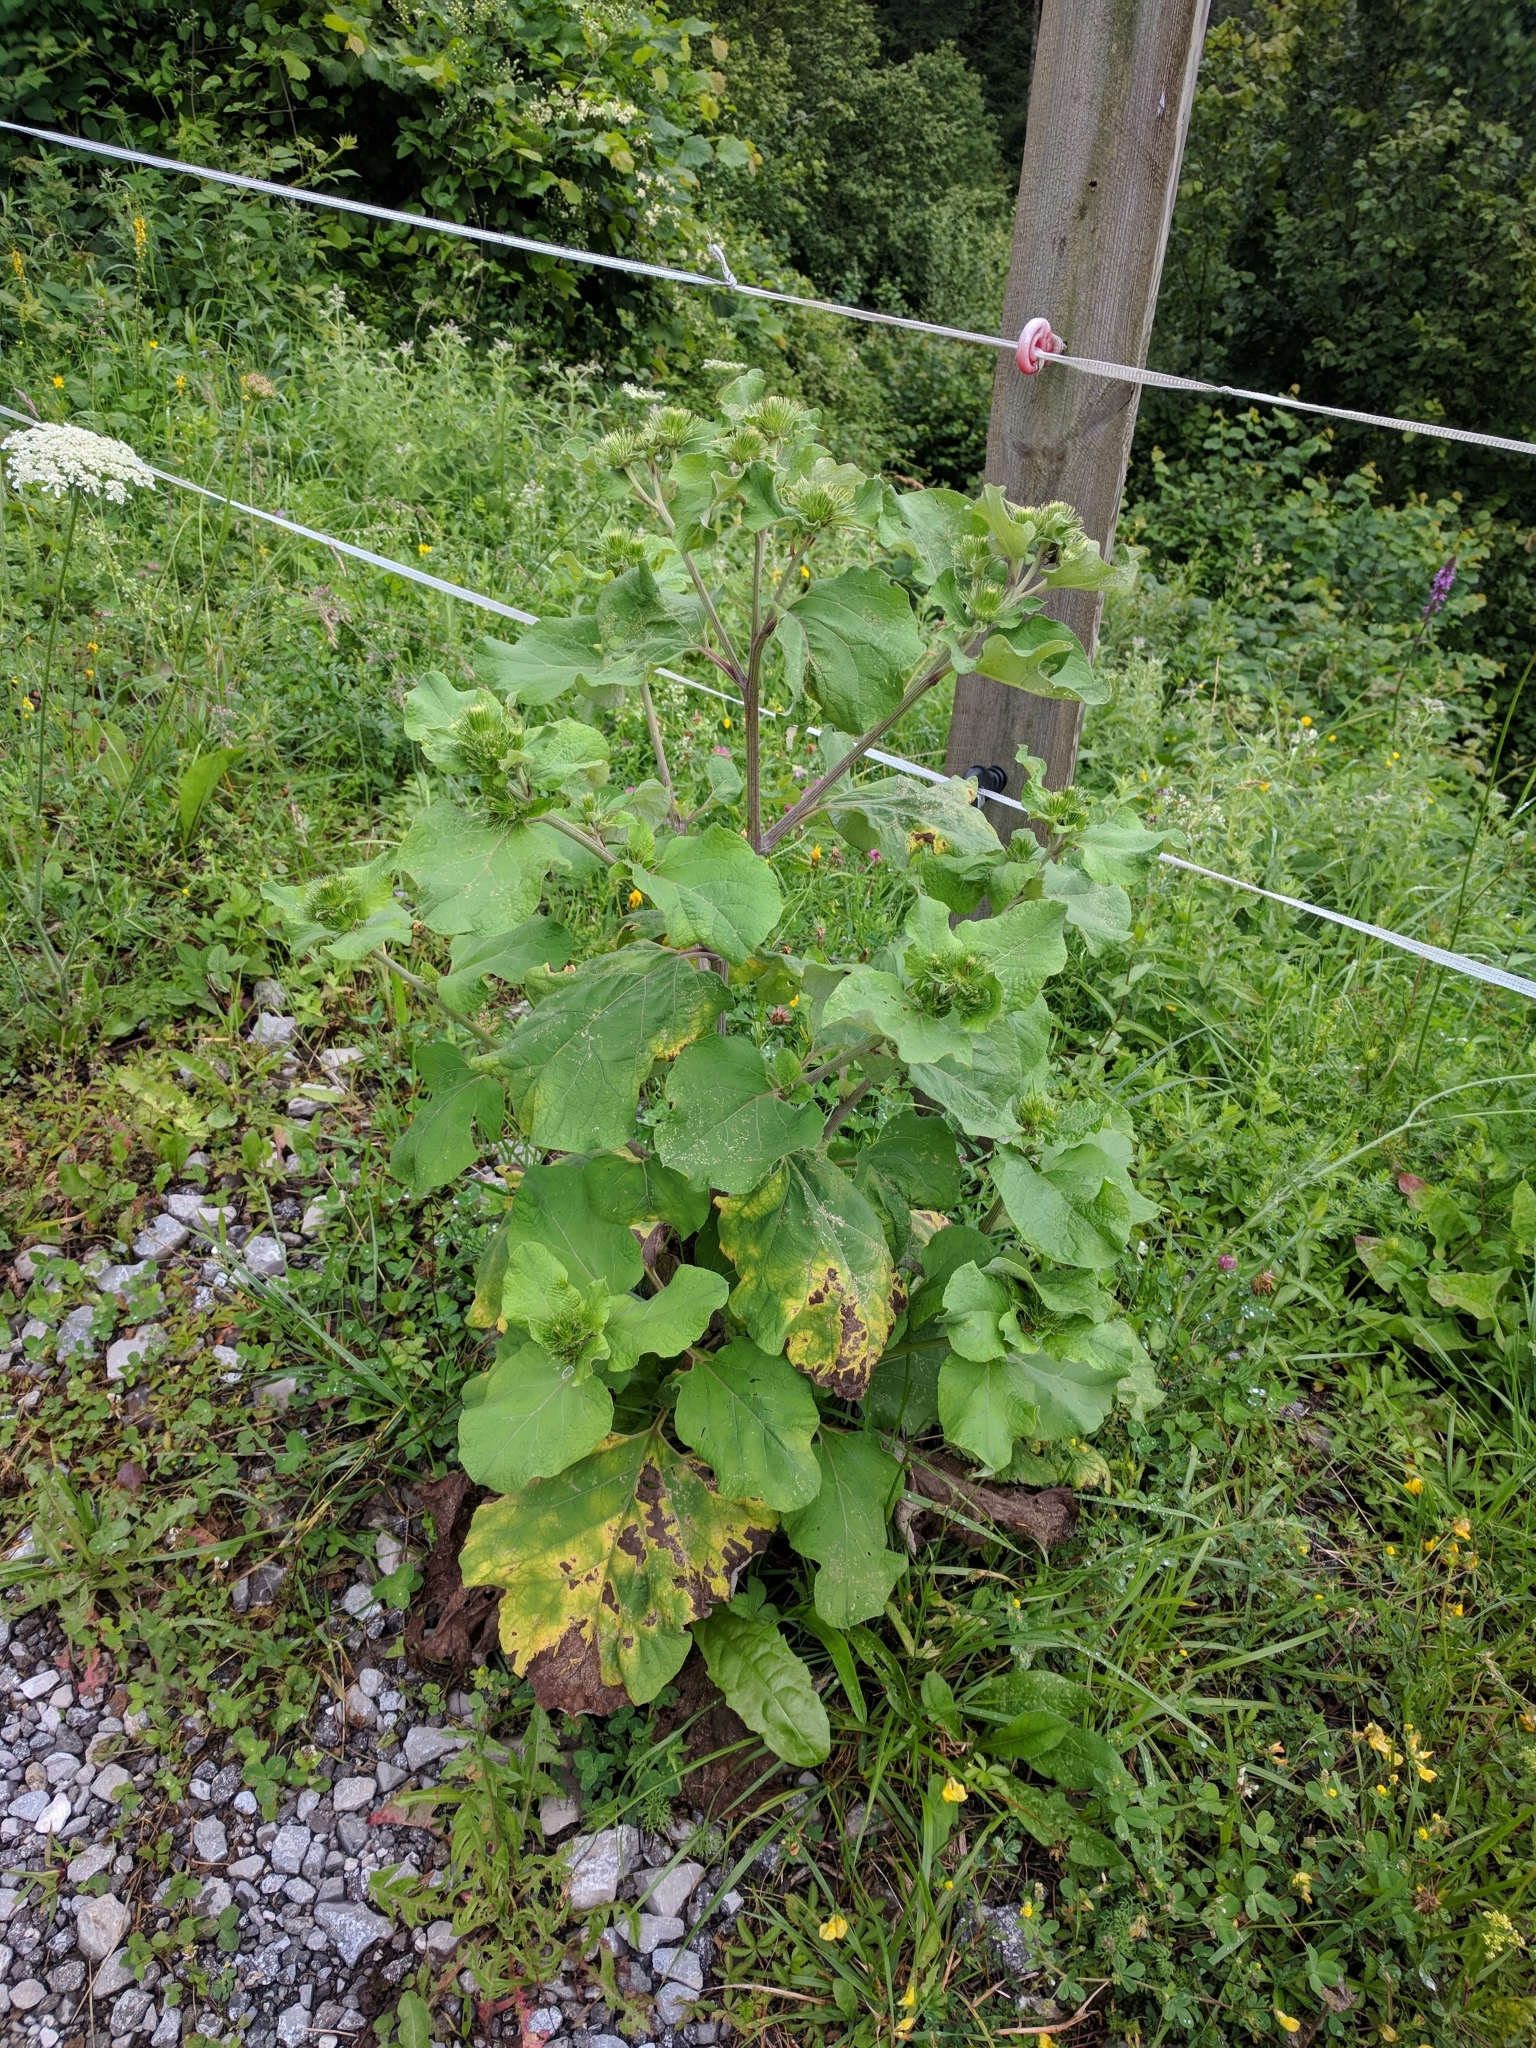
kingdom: Plantae
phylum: Tracheophyta
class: Magnoliopsida
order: Asterales
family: Asteraceae
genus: Arctium
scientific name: Arctium lappa
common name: Greater burdock
